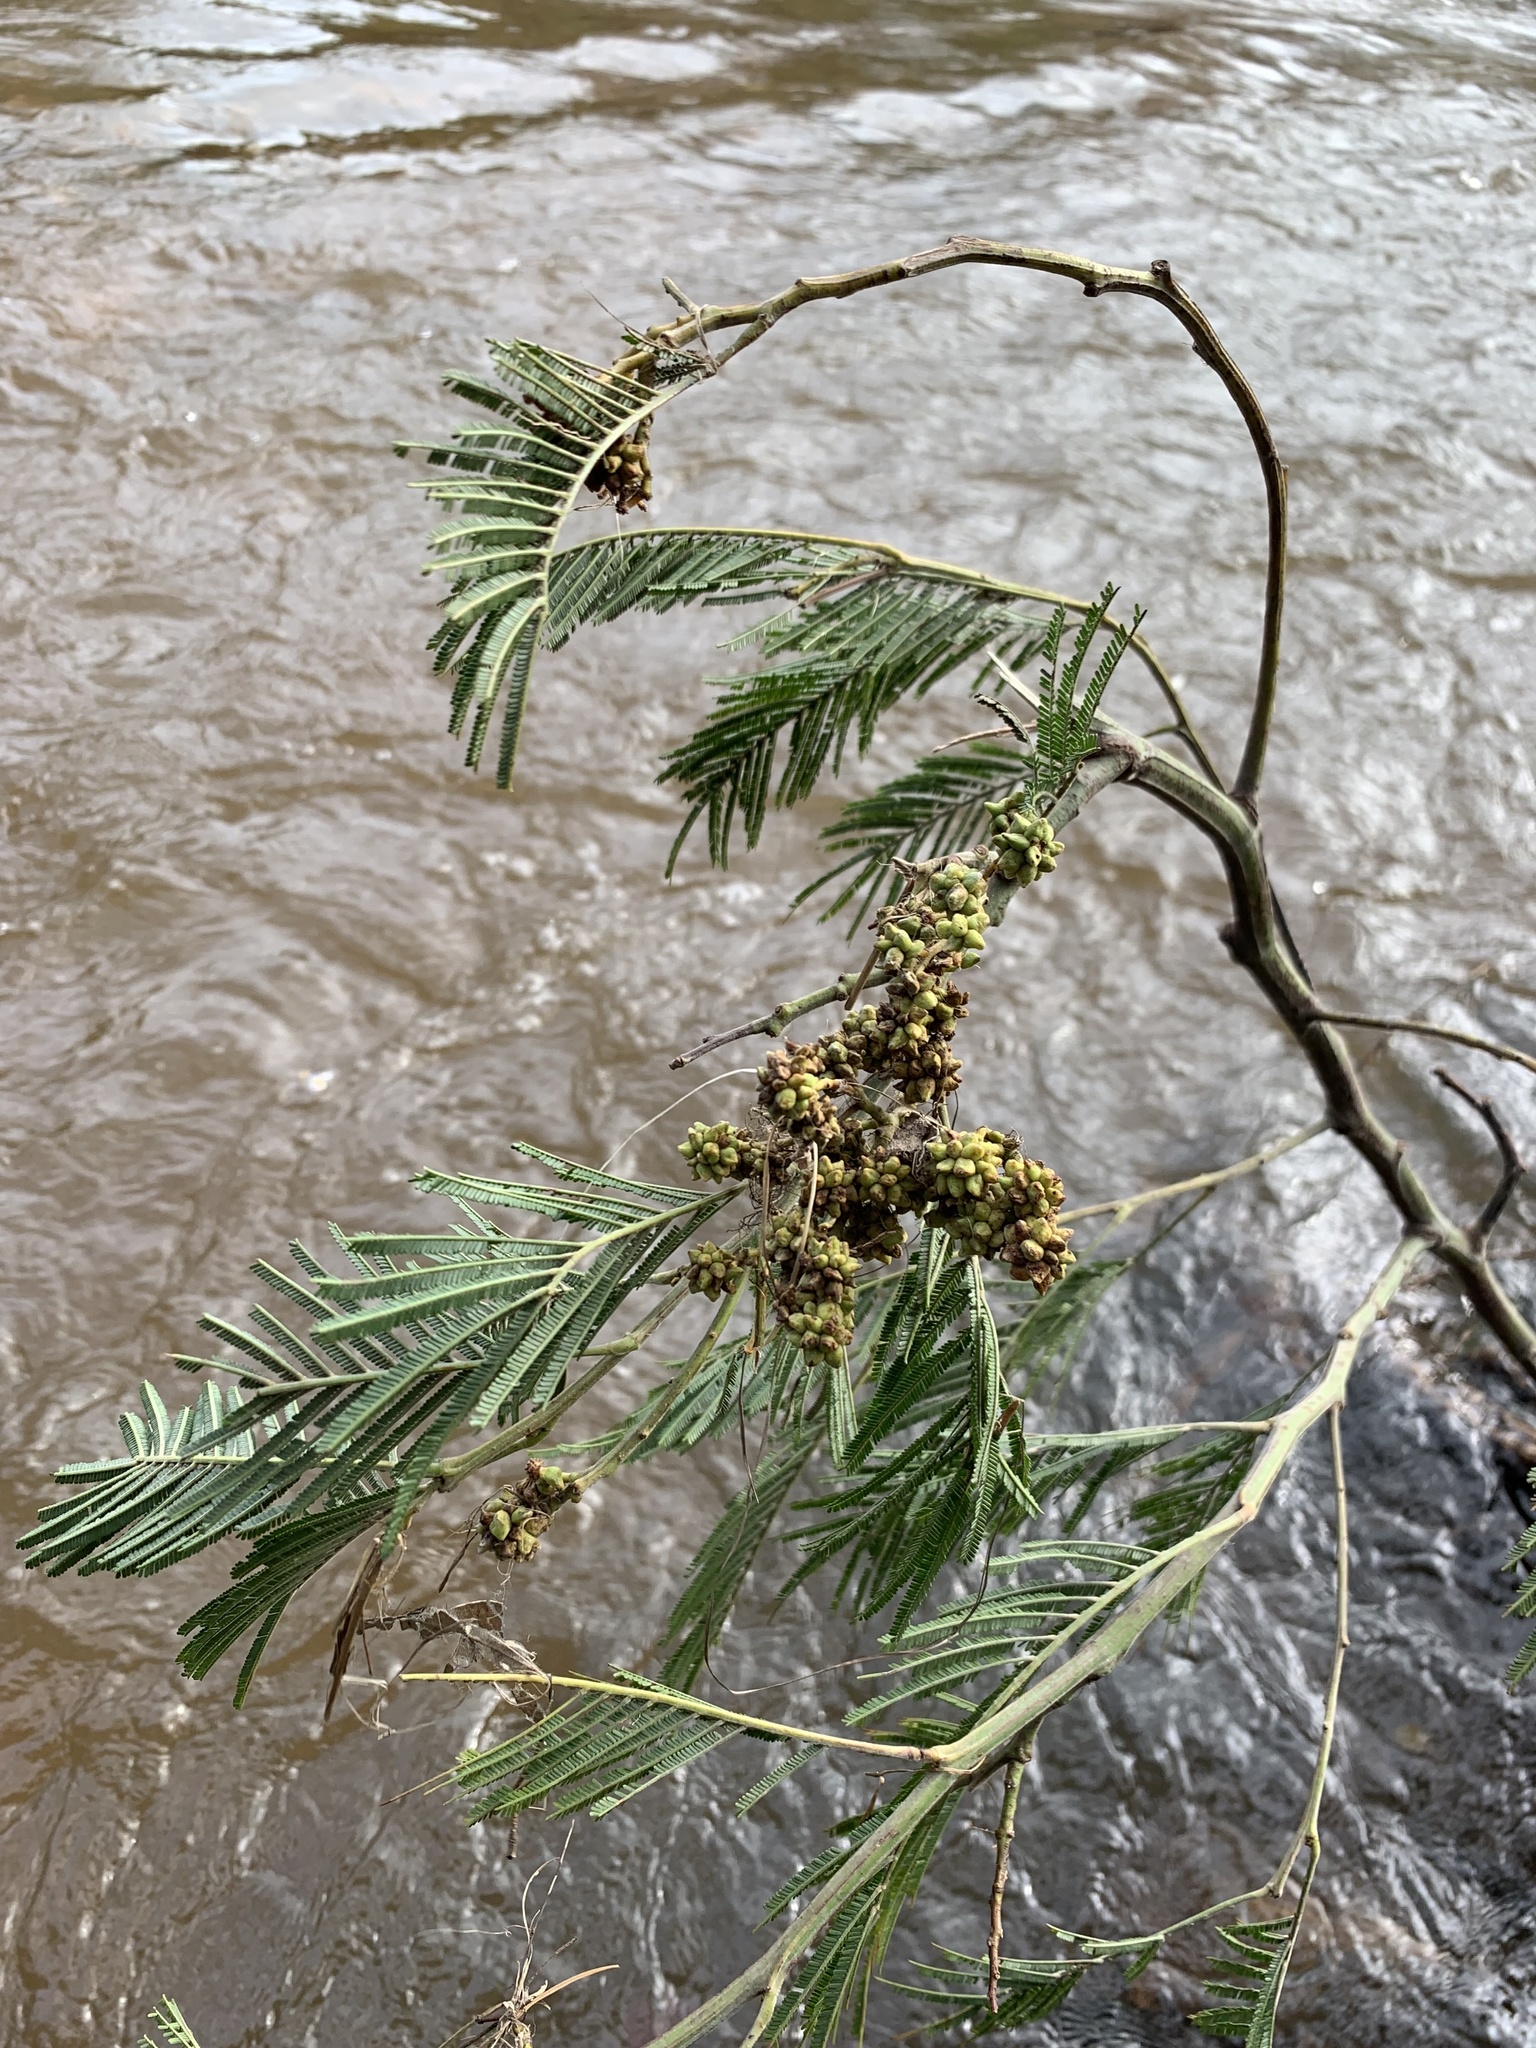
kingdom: Plantae
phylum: Tracheophyta
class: Magnoliopsida
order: Fabales
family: Fabaceae
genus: Acacia
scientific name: Acacia mearnsii
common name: Black wattle
